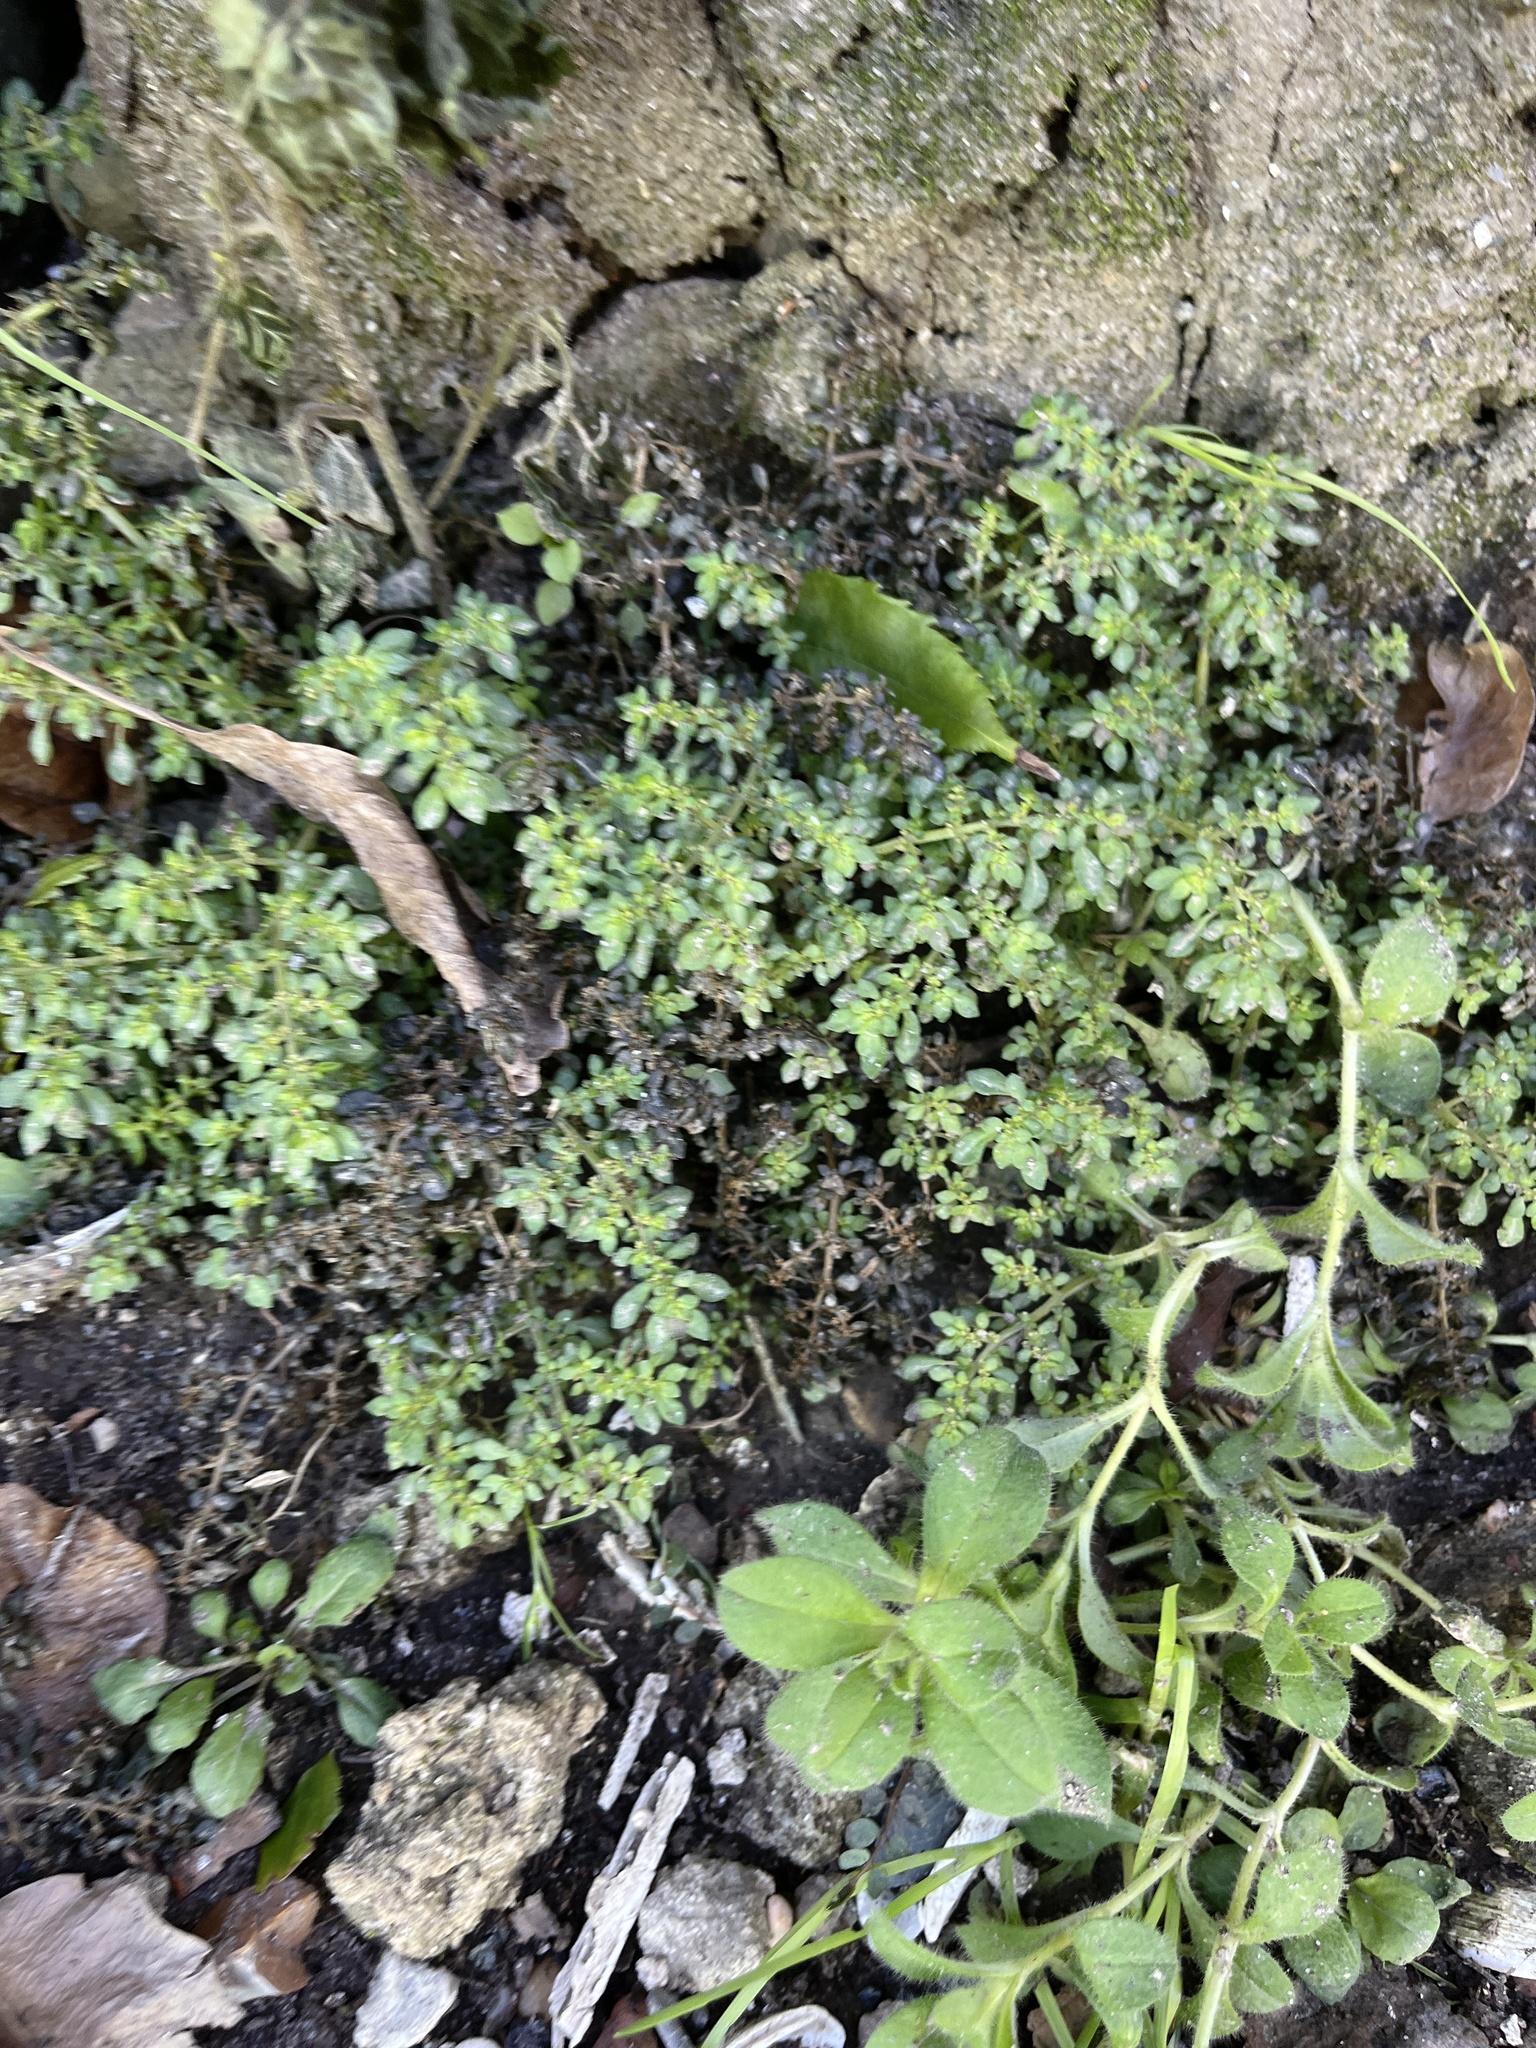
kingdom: Plantae
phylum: Tracheophyta
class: Magnoliopsida
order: Rosales
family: Urticaceae
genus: Pilea
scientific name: Pilea microphylla
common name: Artillery-plant
